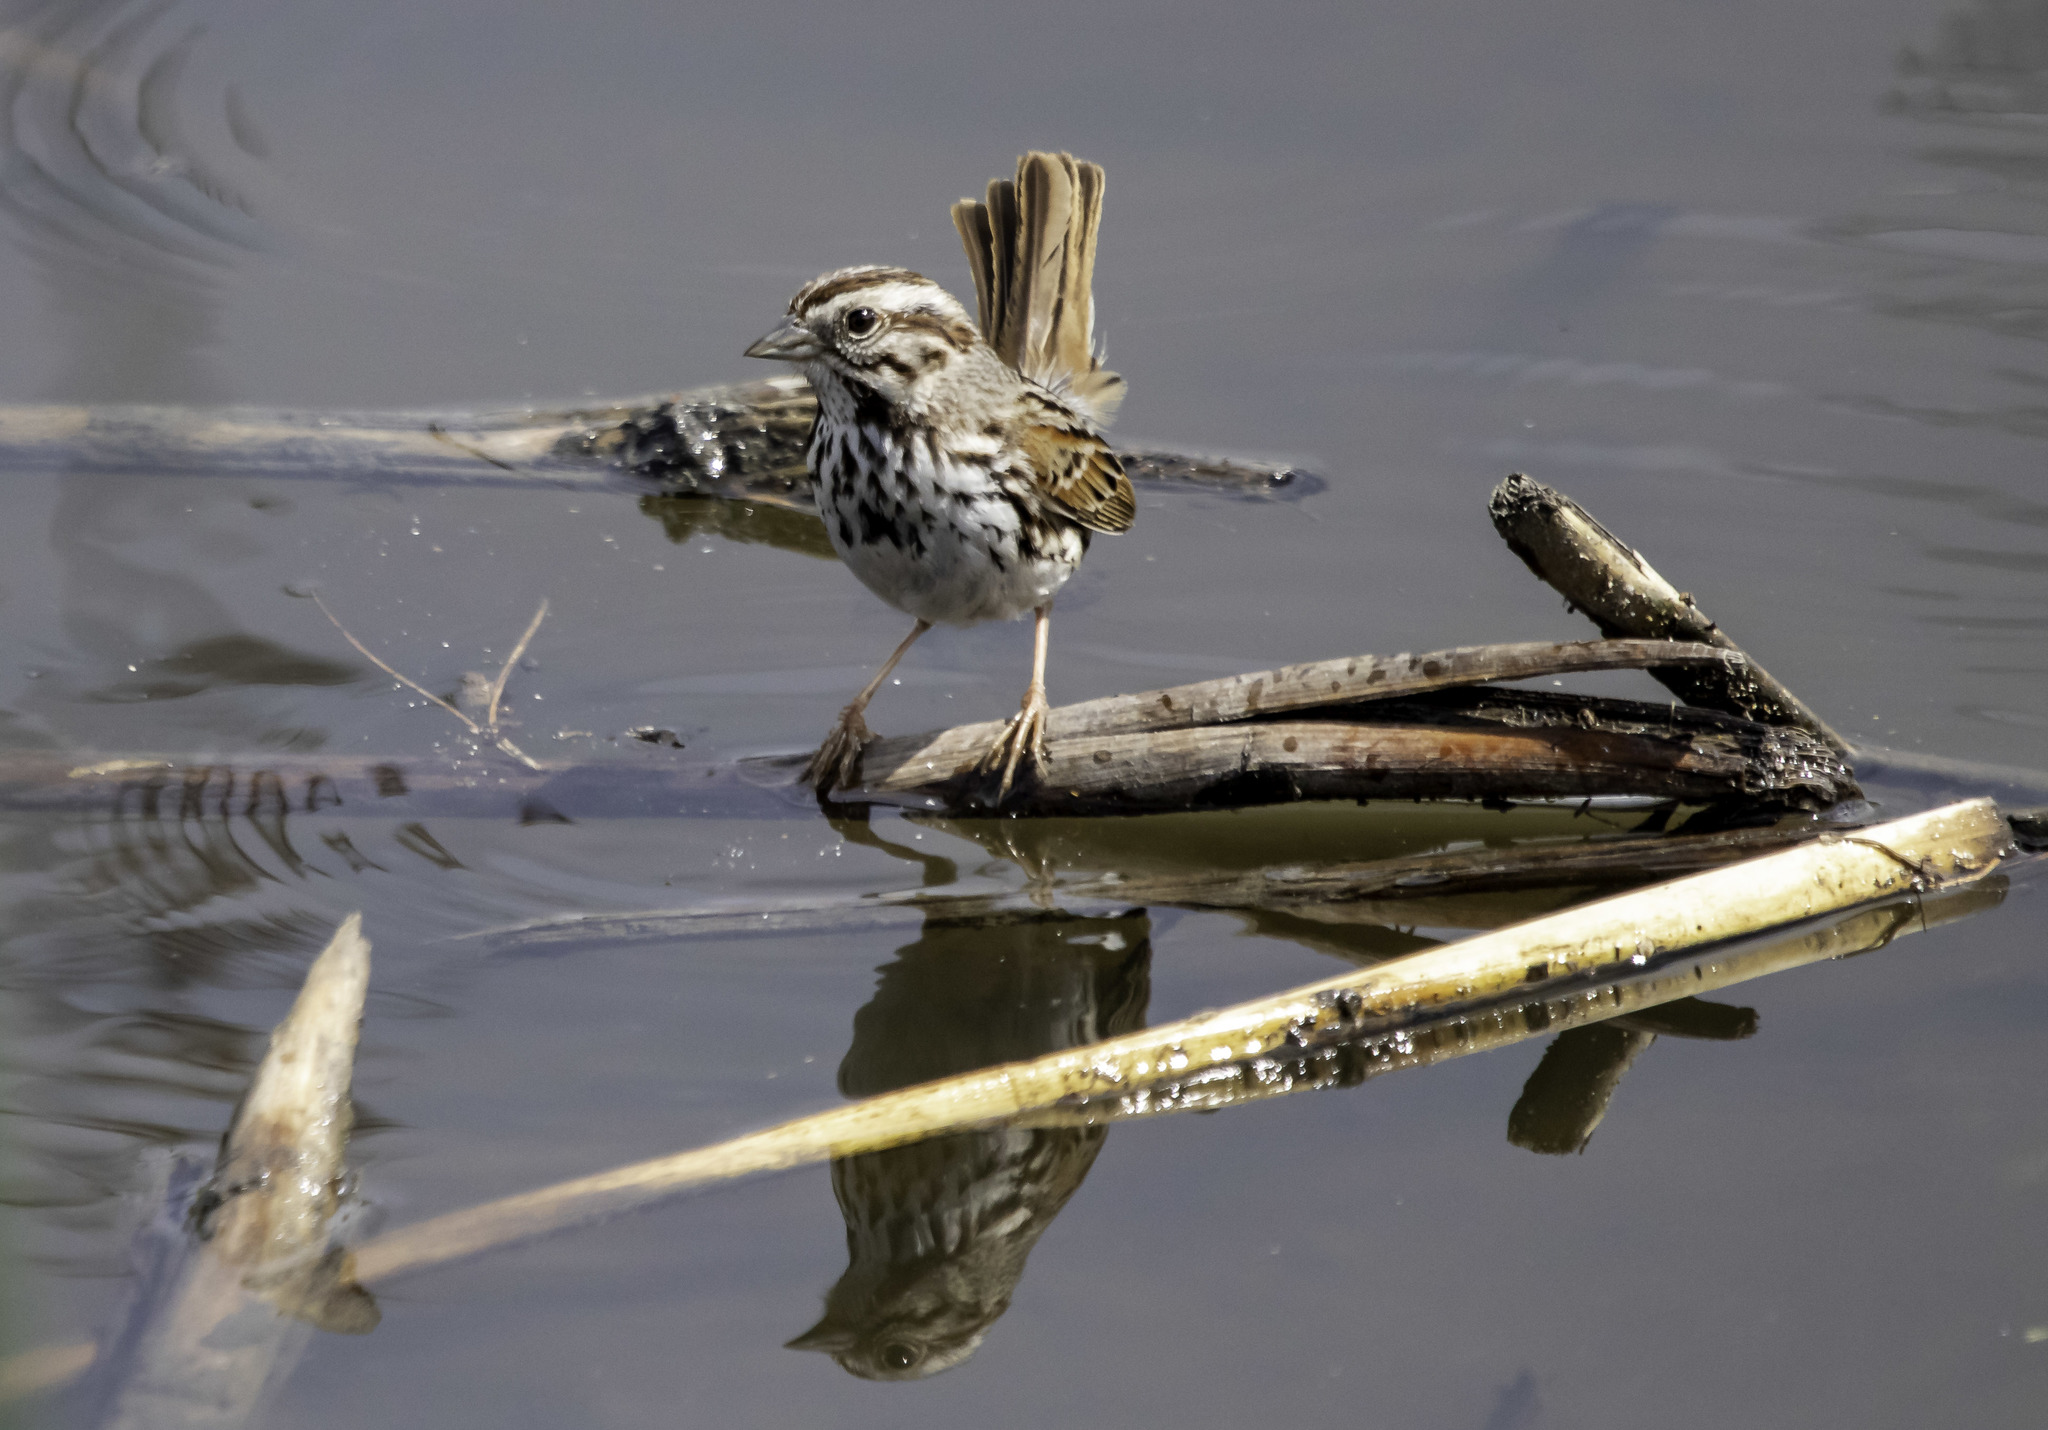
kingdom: Animalia
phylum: Chordata
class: Aves
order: Passeriformes
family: Passerellidae
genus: Melospiza
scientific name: Melospiza melodia
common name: Song sparrow
